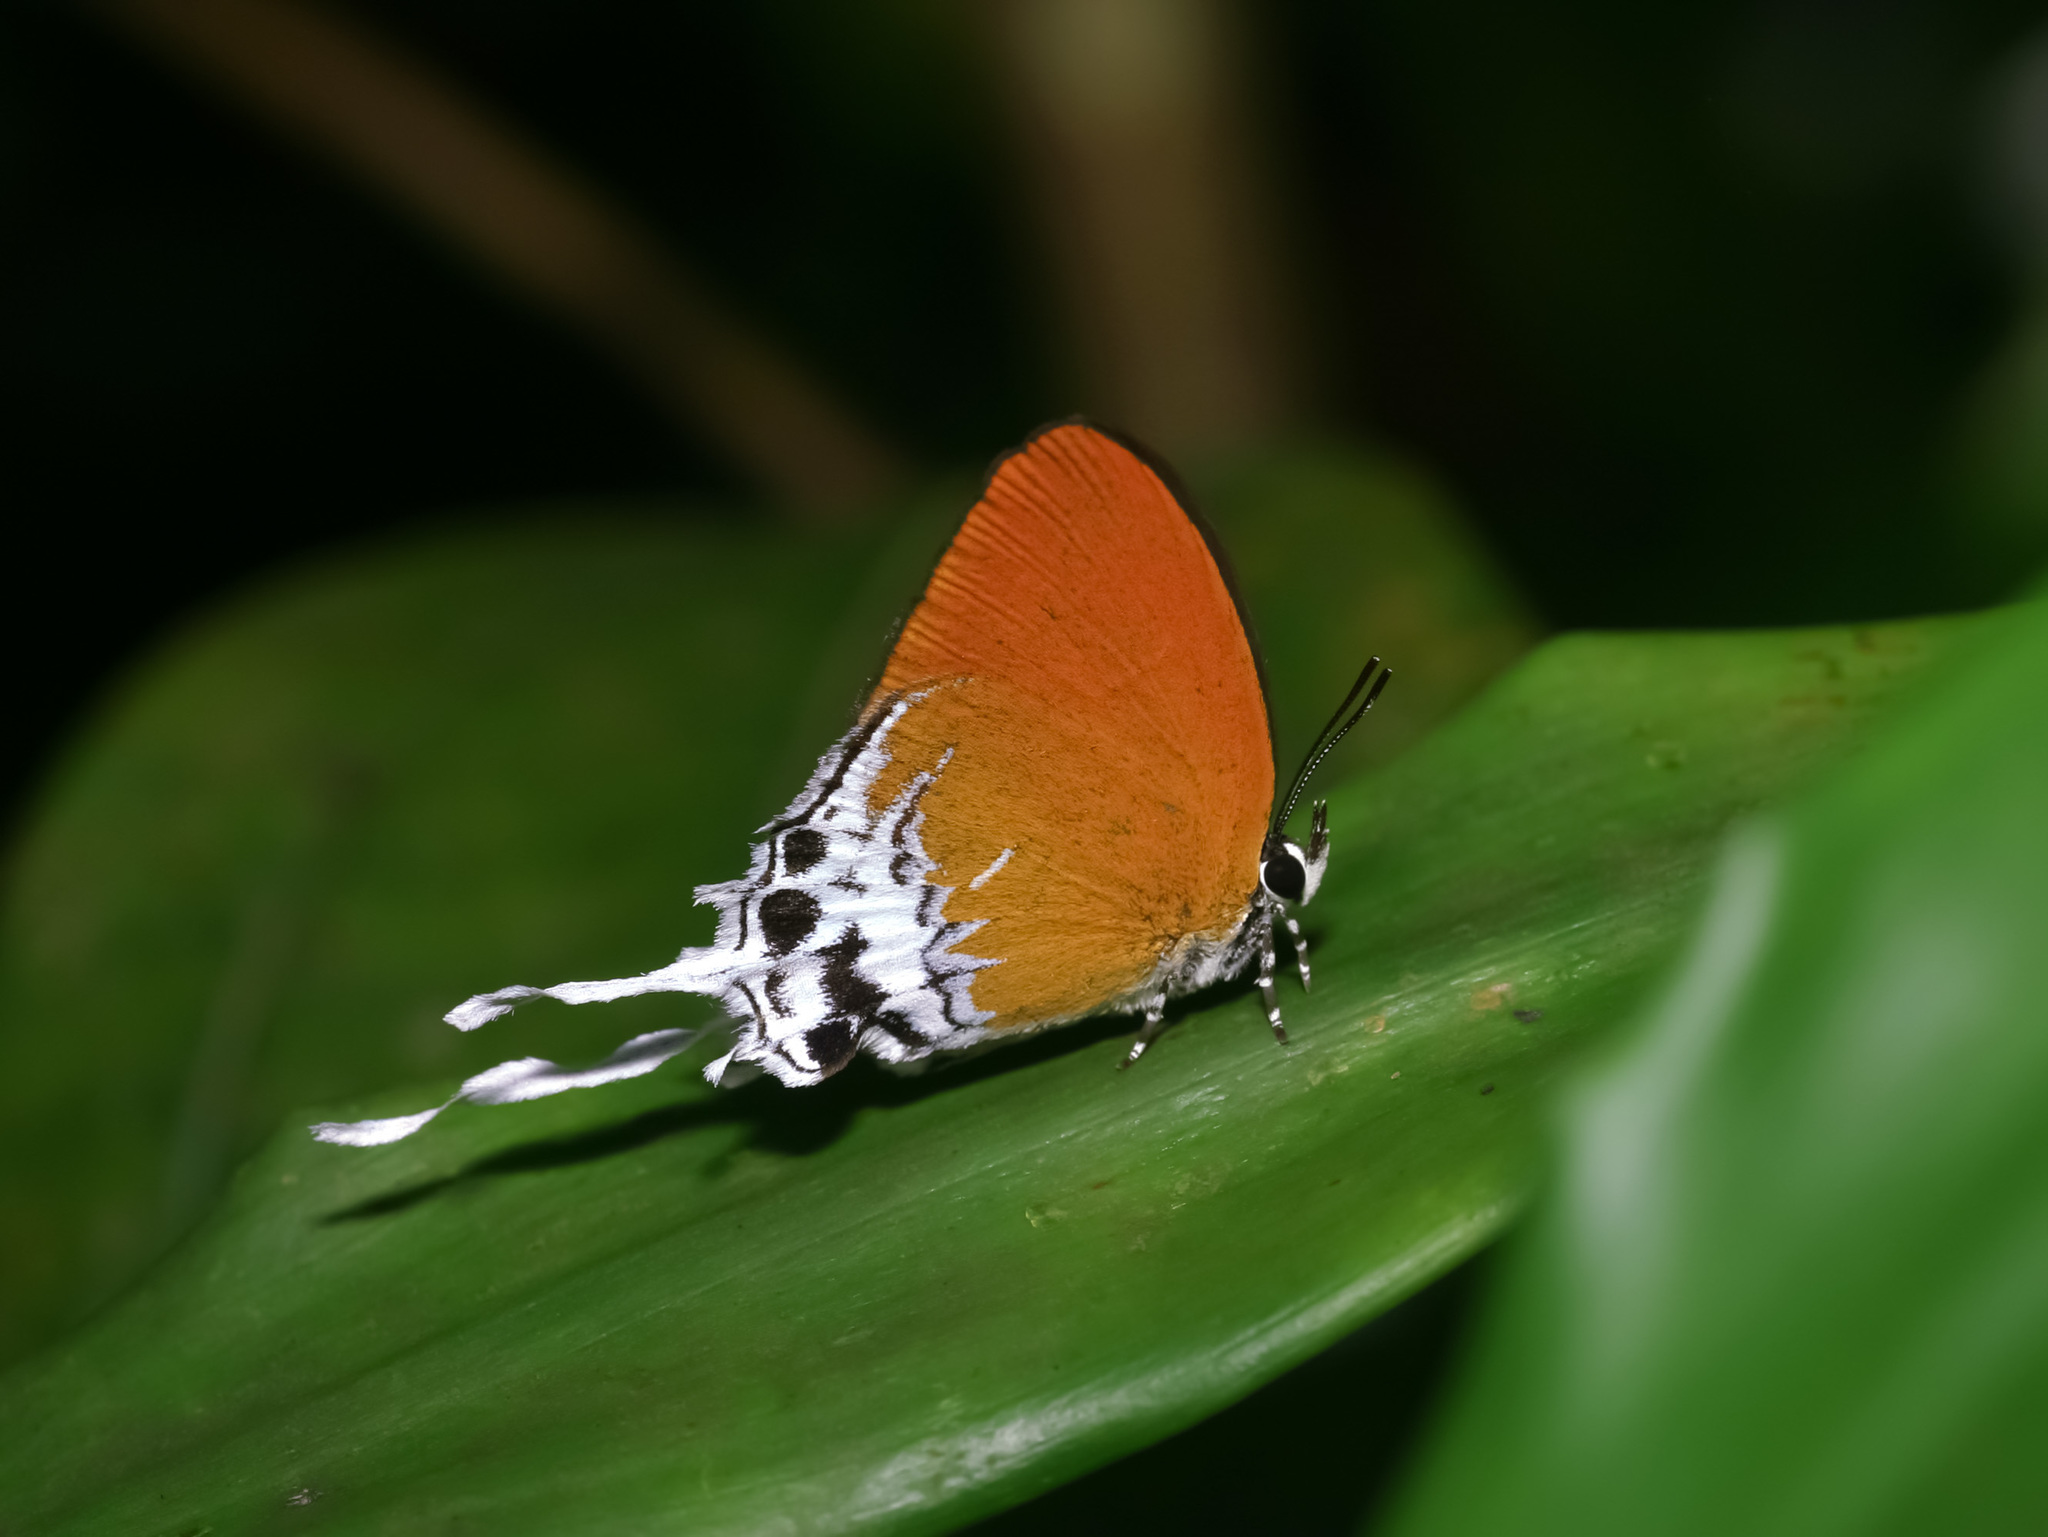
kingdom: Animalia
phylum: Arthropoda
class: Insecta
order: Lepidoptera
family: Lycaenidae
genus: Eooxylides
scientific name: Eooxylides tharis
